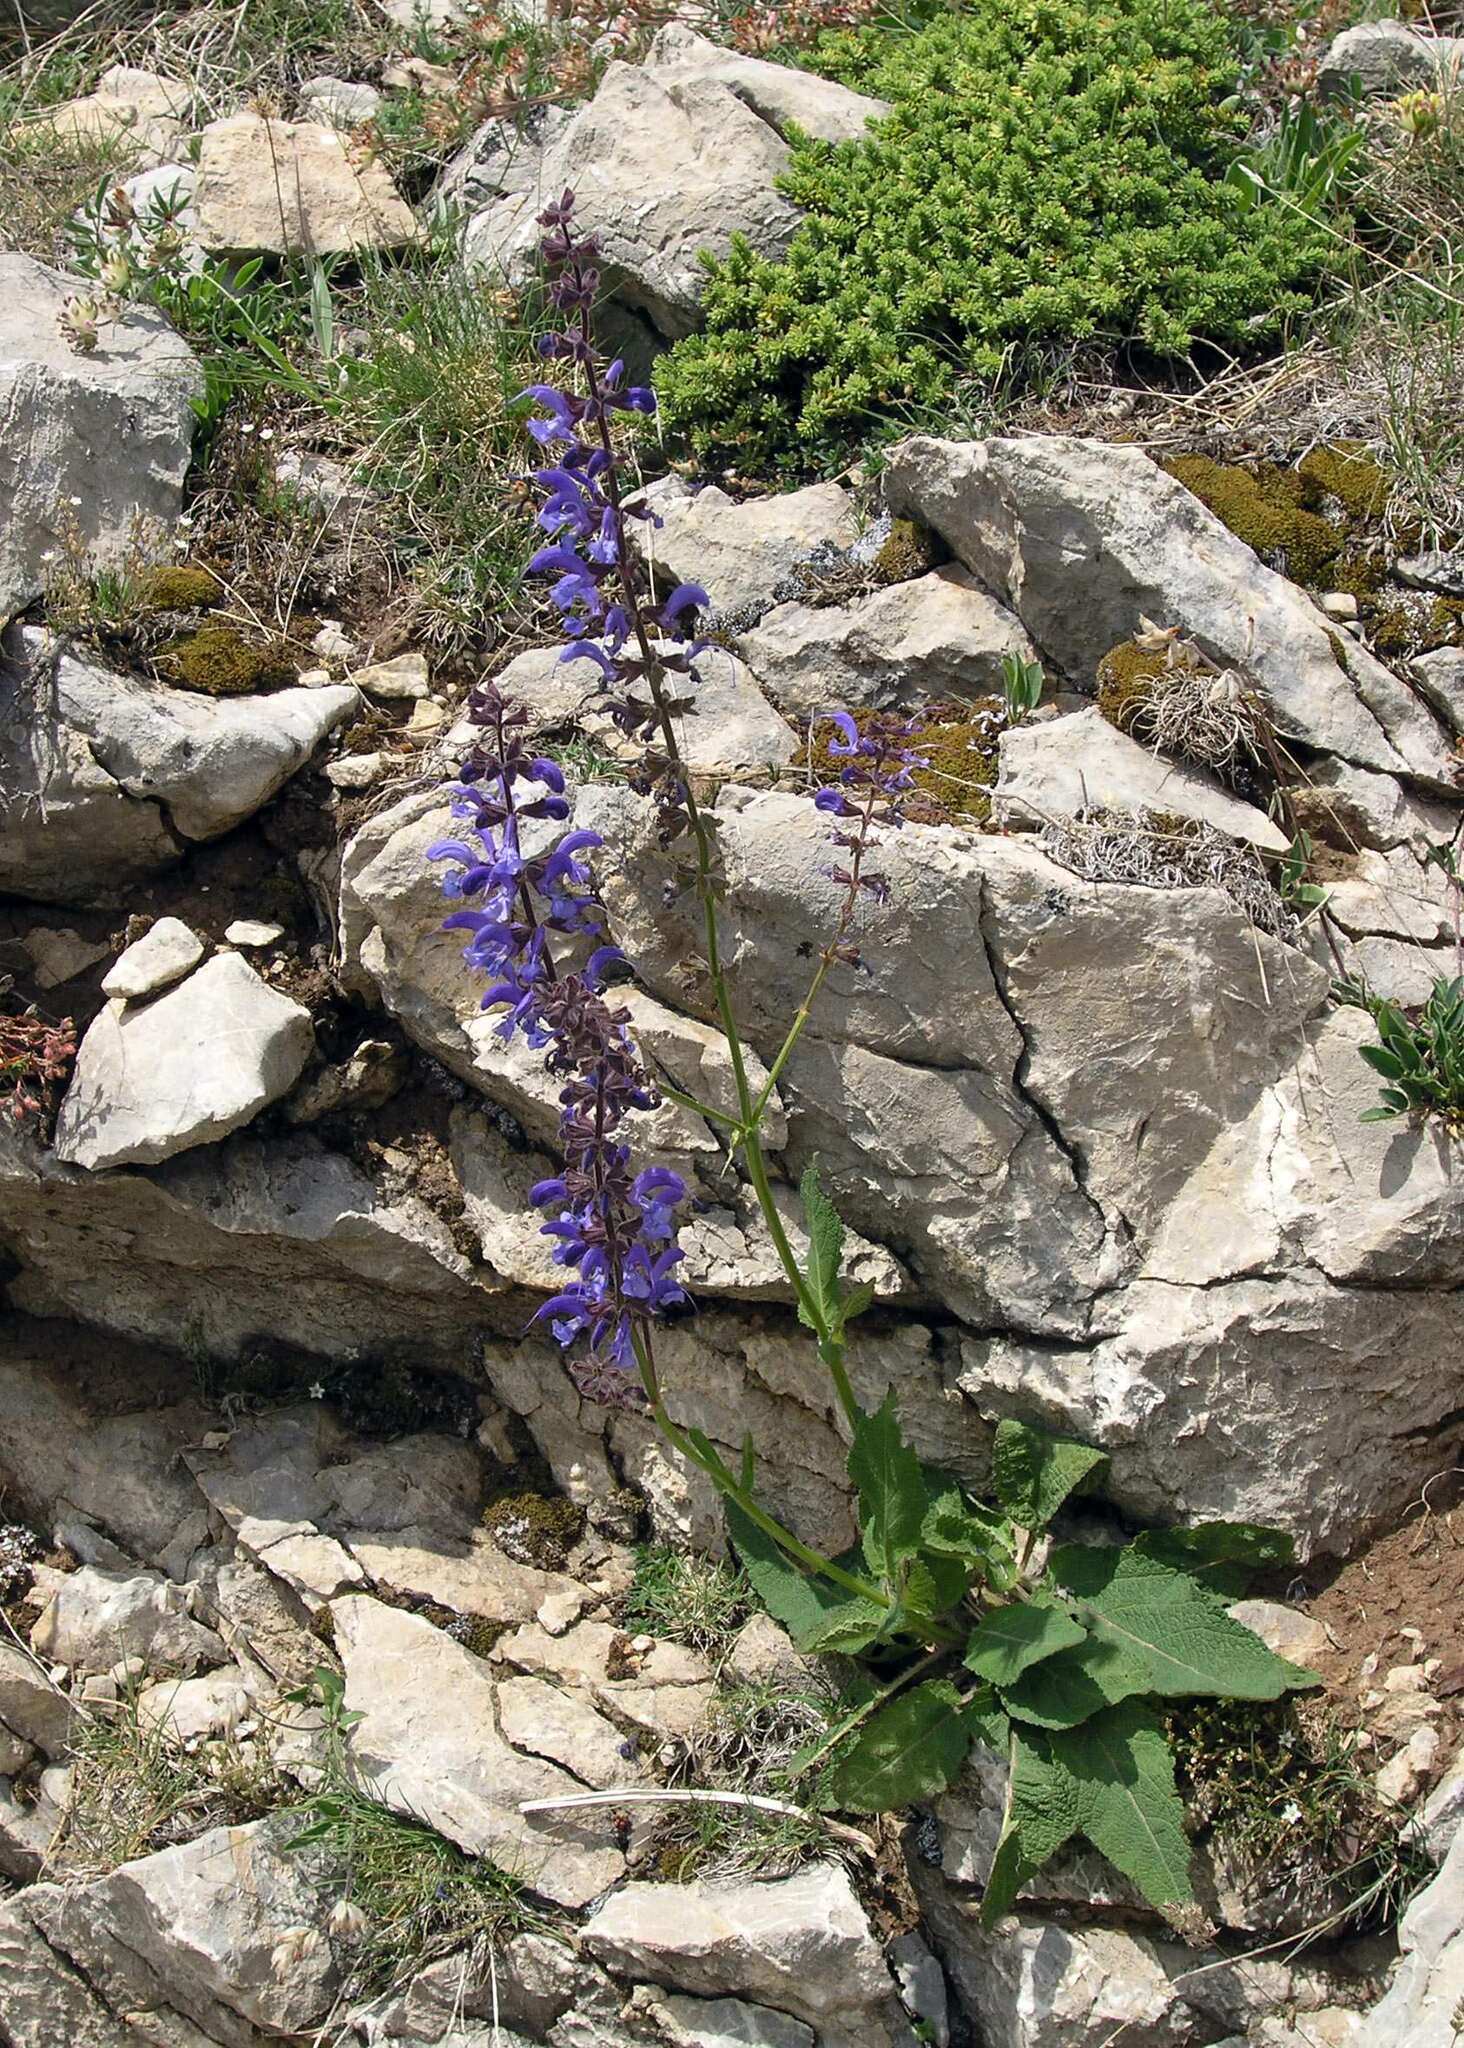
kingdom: Plantae
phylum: Tracheophyta
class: Magnoliopsida
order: Lamiales
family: Lamiaceae
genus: Salvia
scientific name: Salvia pratensis
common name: Meadow sage
